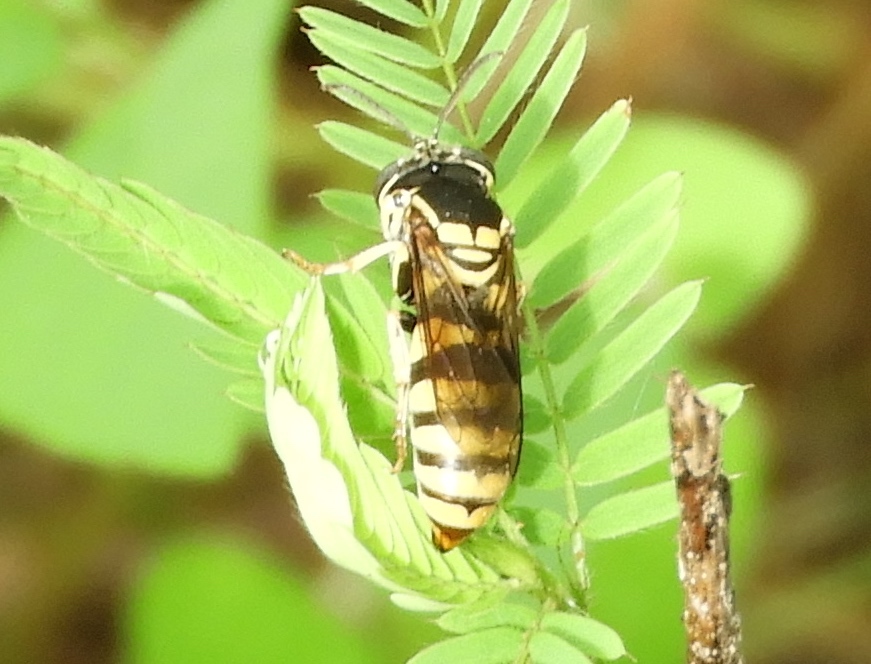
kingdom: Animalia
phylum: Arthropoda
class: Insecta
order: Hymenoptera
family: Crabronidae
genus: Bicyrtes
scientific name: Bicyrtes
